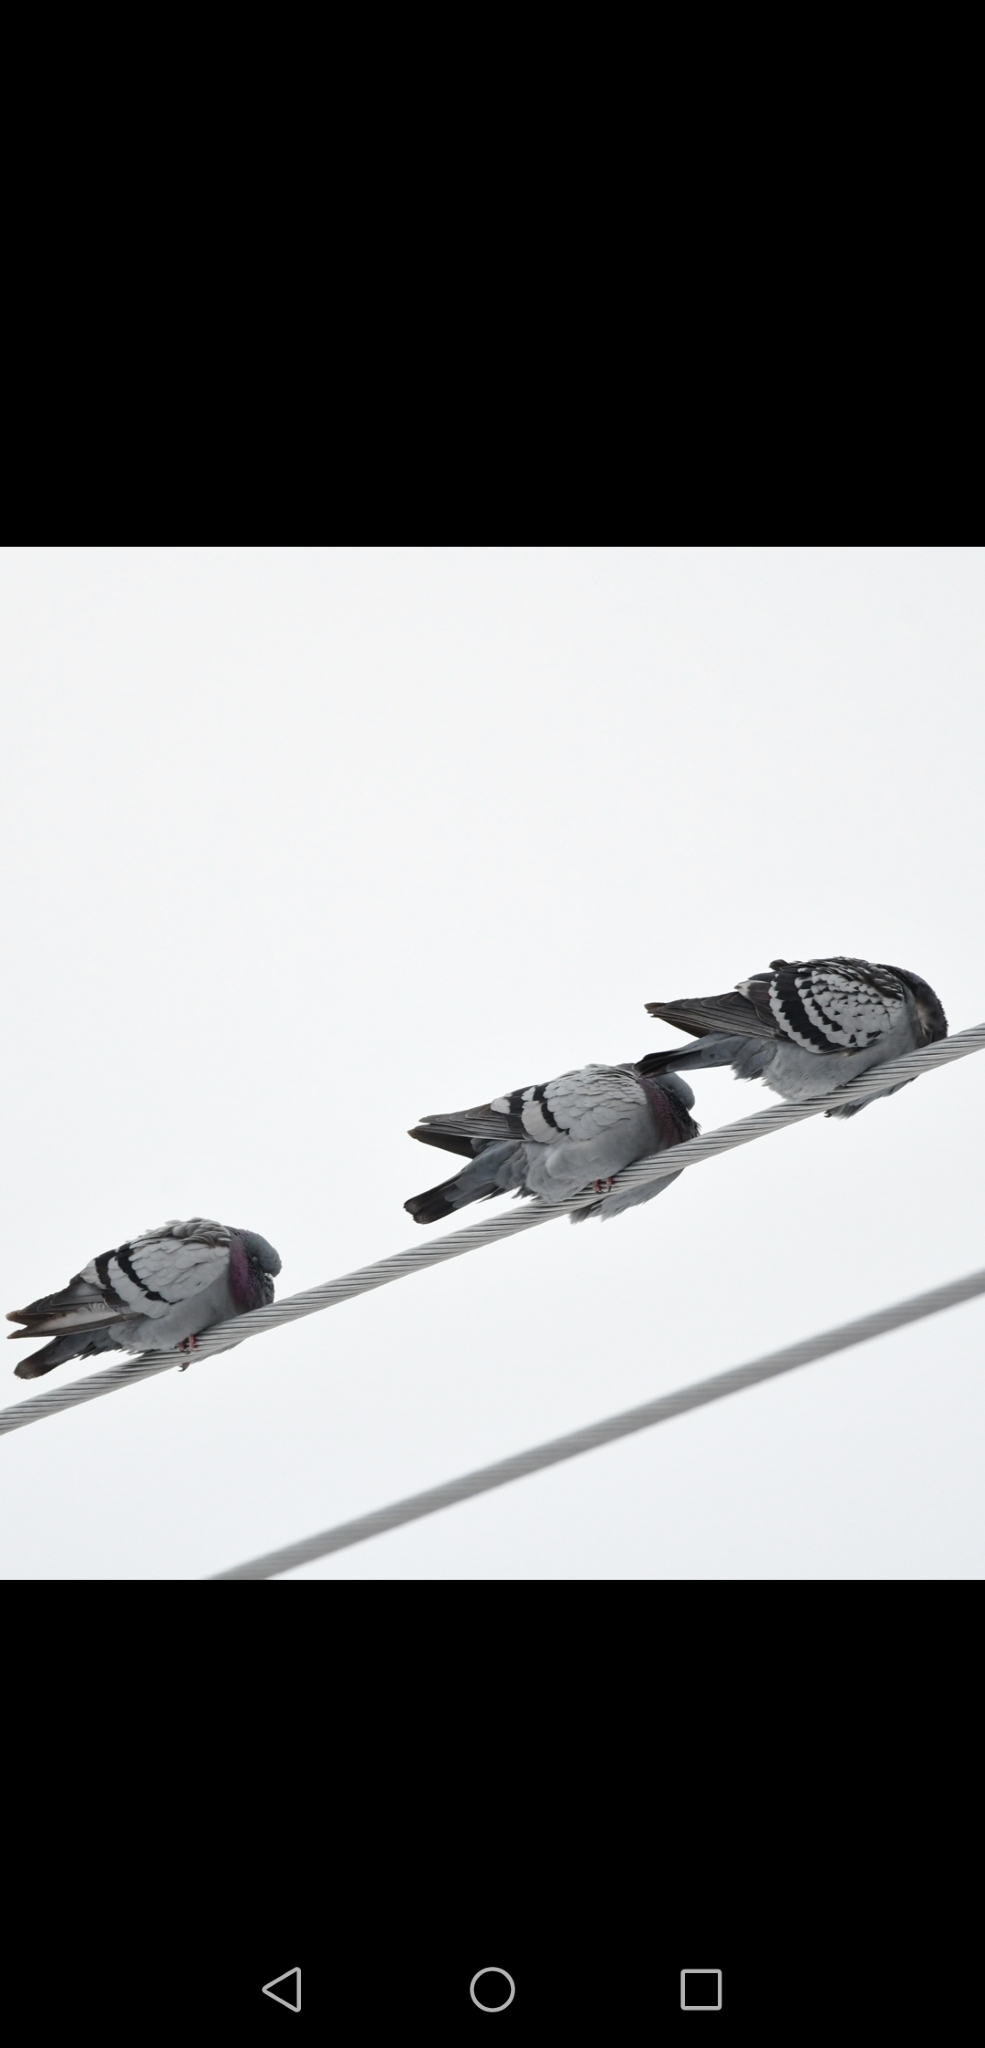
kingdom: Animalia
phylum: Chordata
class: Aves
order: Columbiformes
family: Columbidae
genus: Columba
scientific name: Columba livia
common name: Rock pigeon
